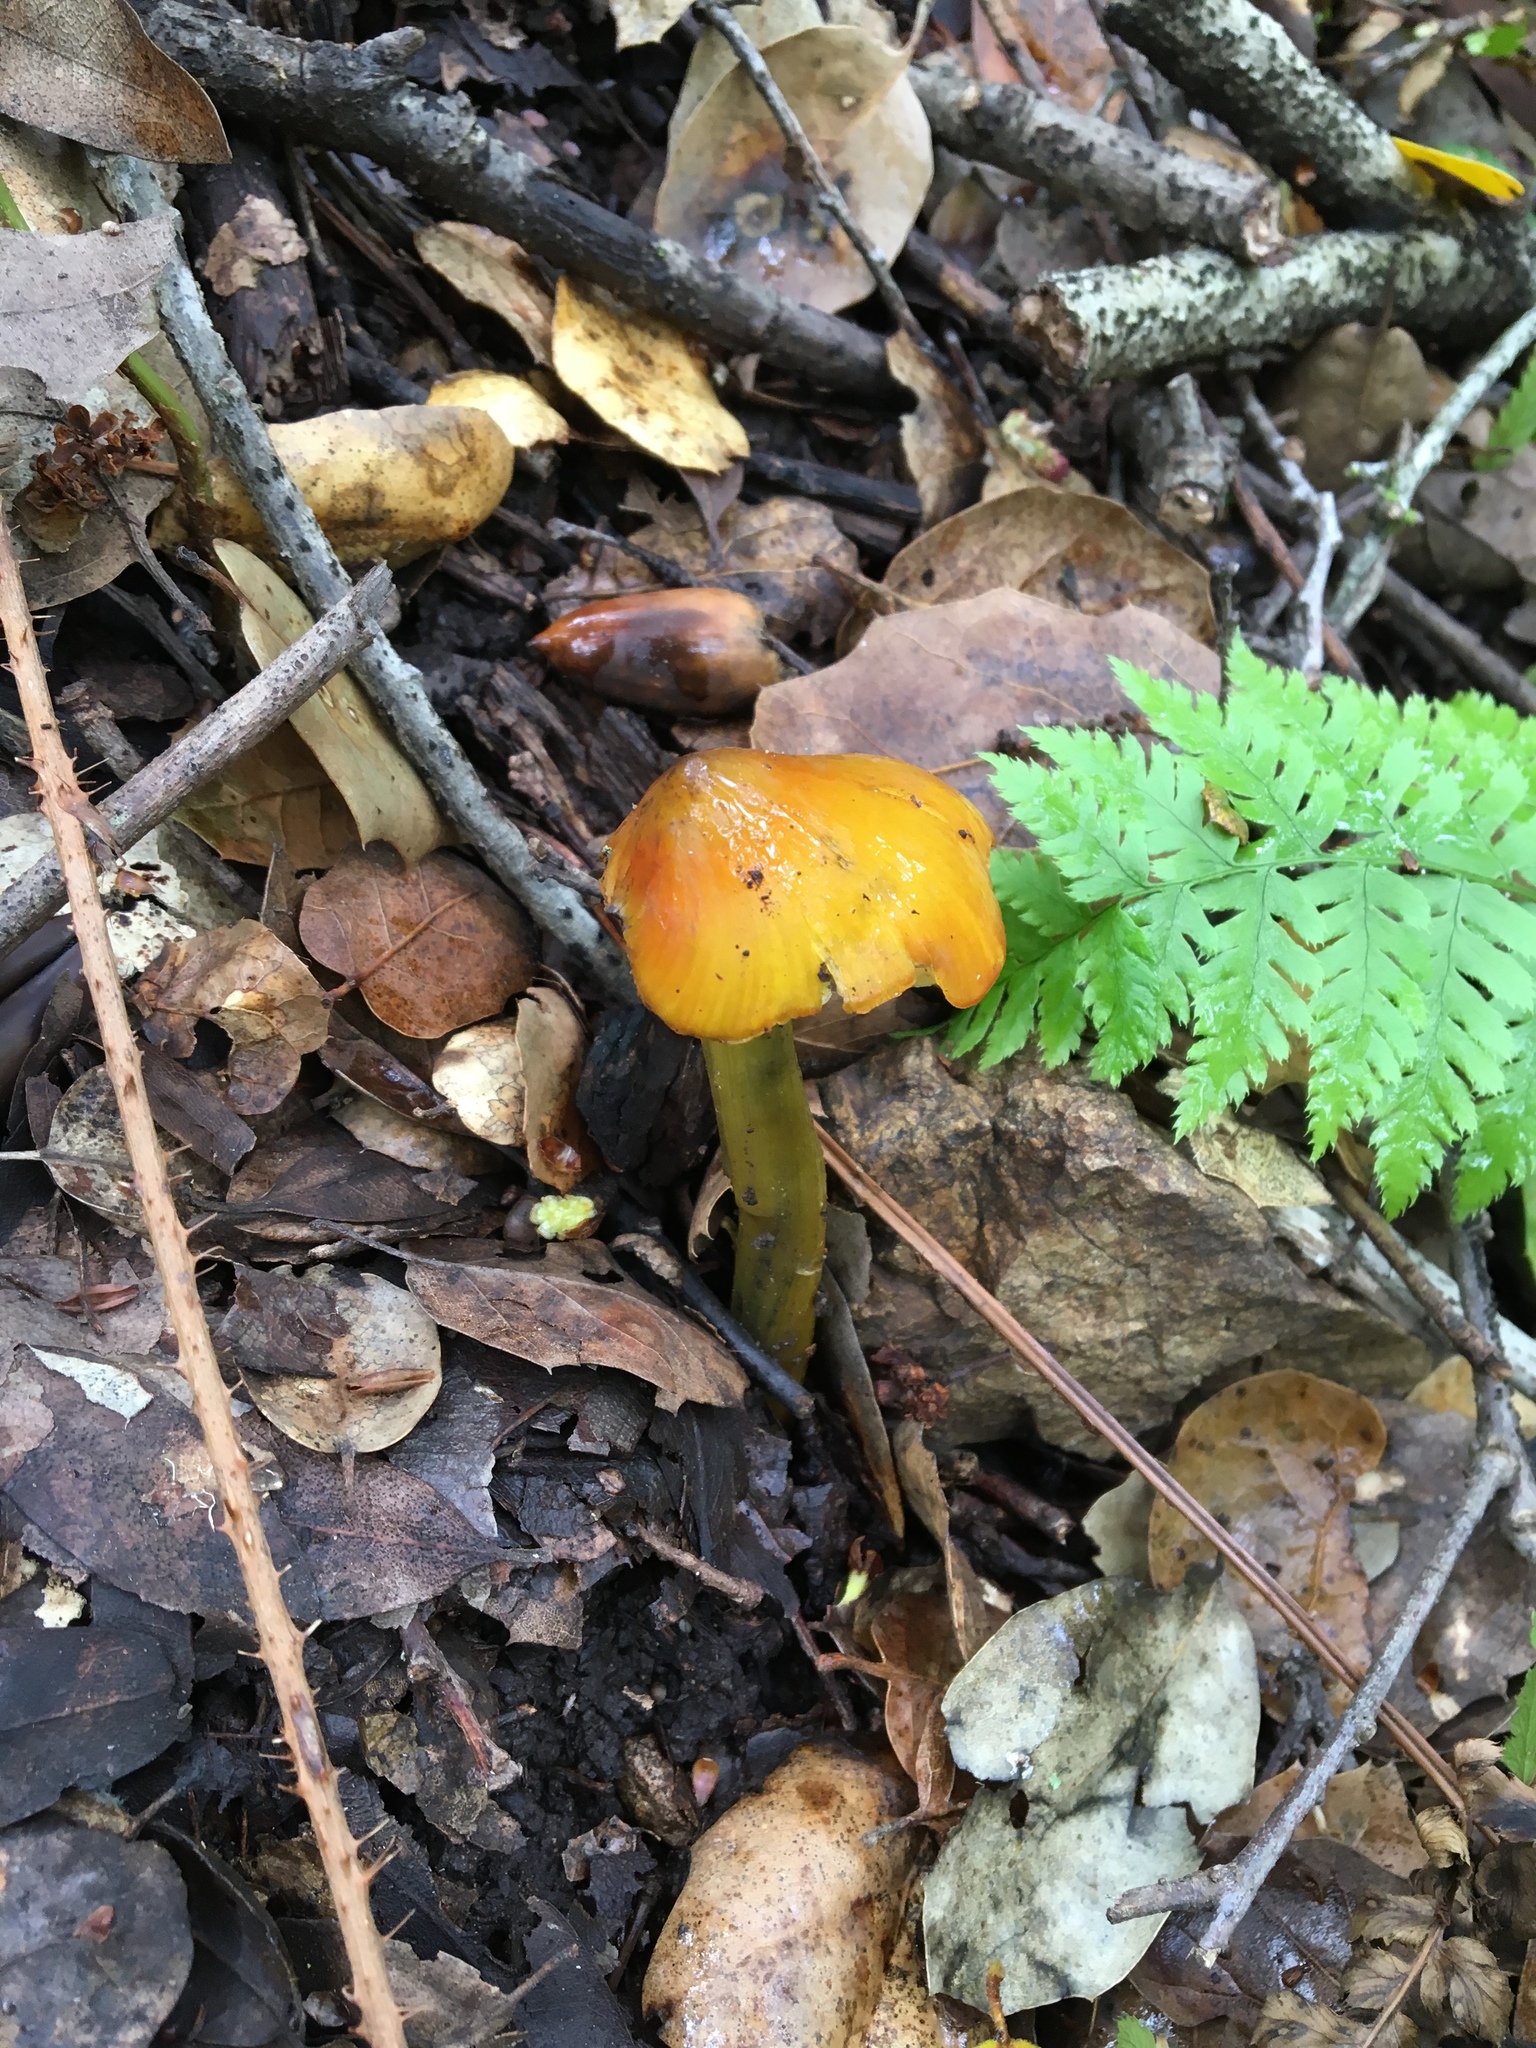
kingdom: Fungi
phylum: Basidiomycota
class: Agaricomycetes
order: Agaricales
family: Hygrophoraceae
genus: Hygrocybe
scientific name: Hygrocybe singeri
